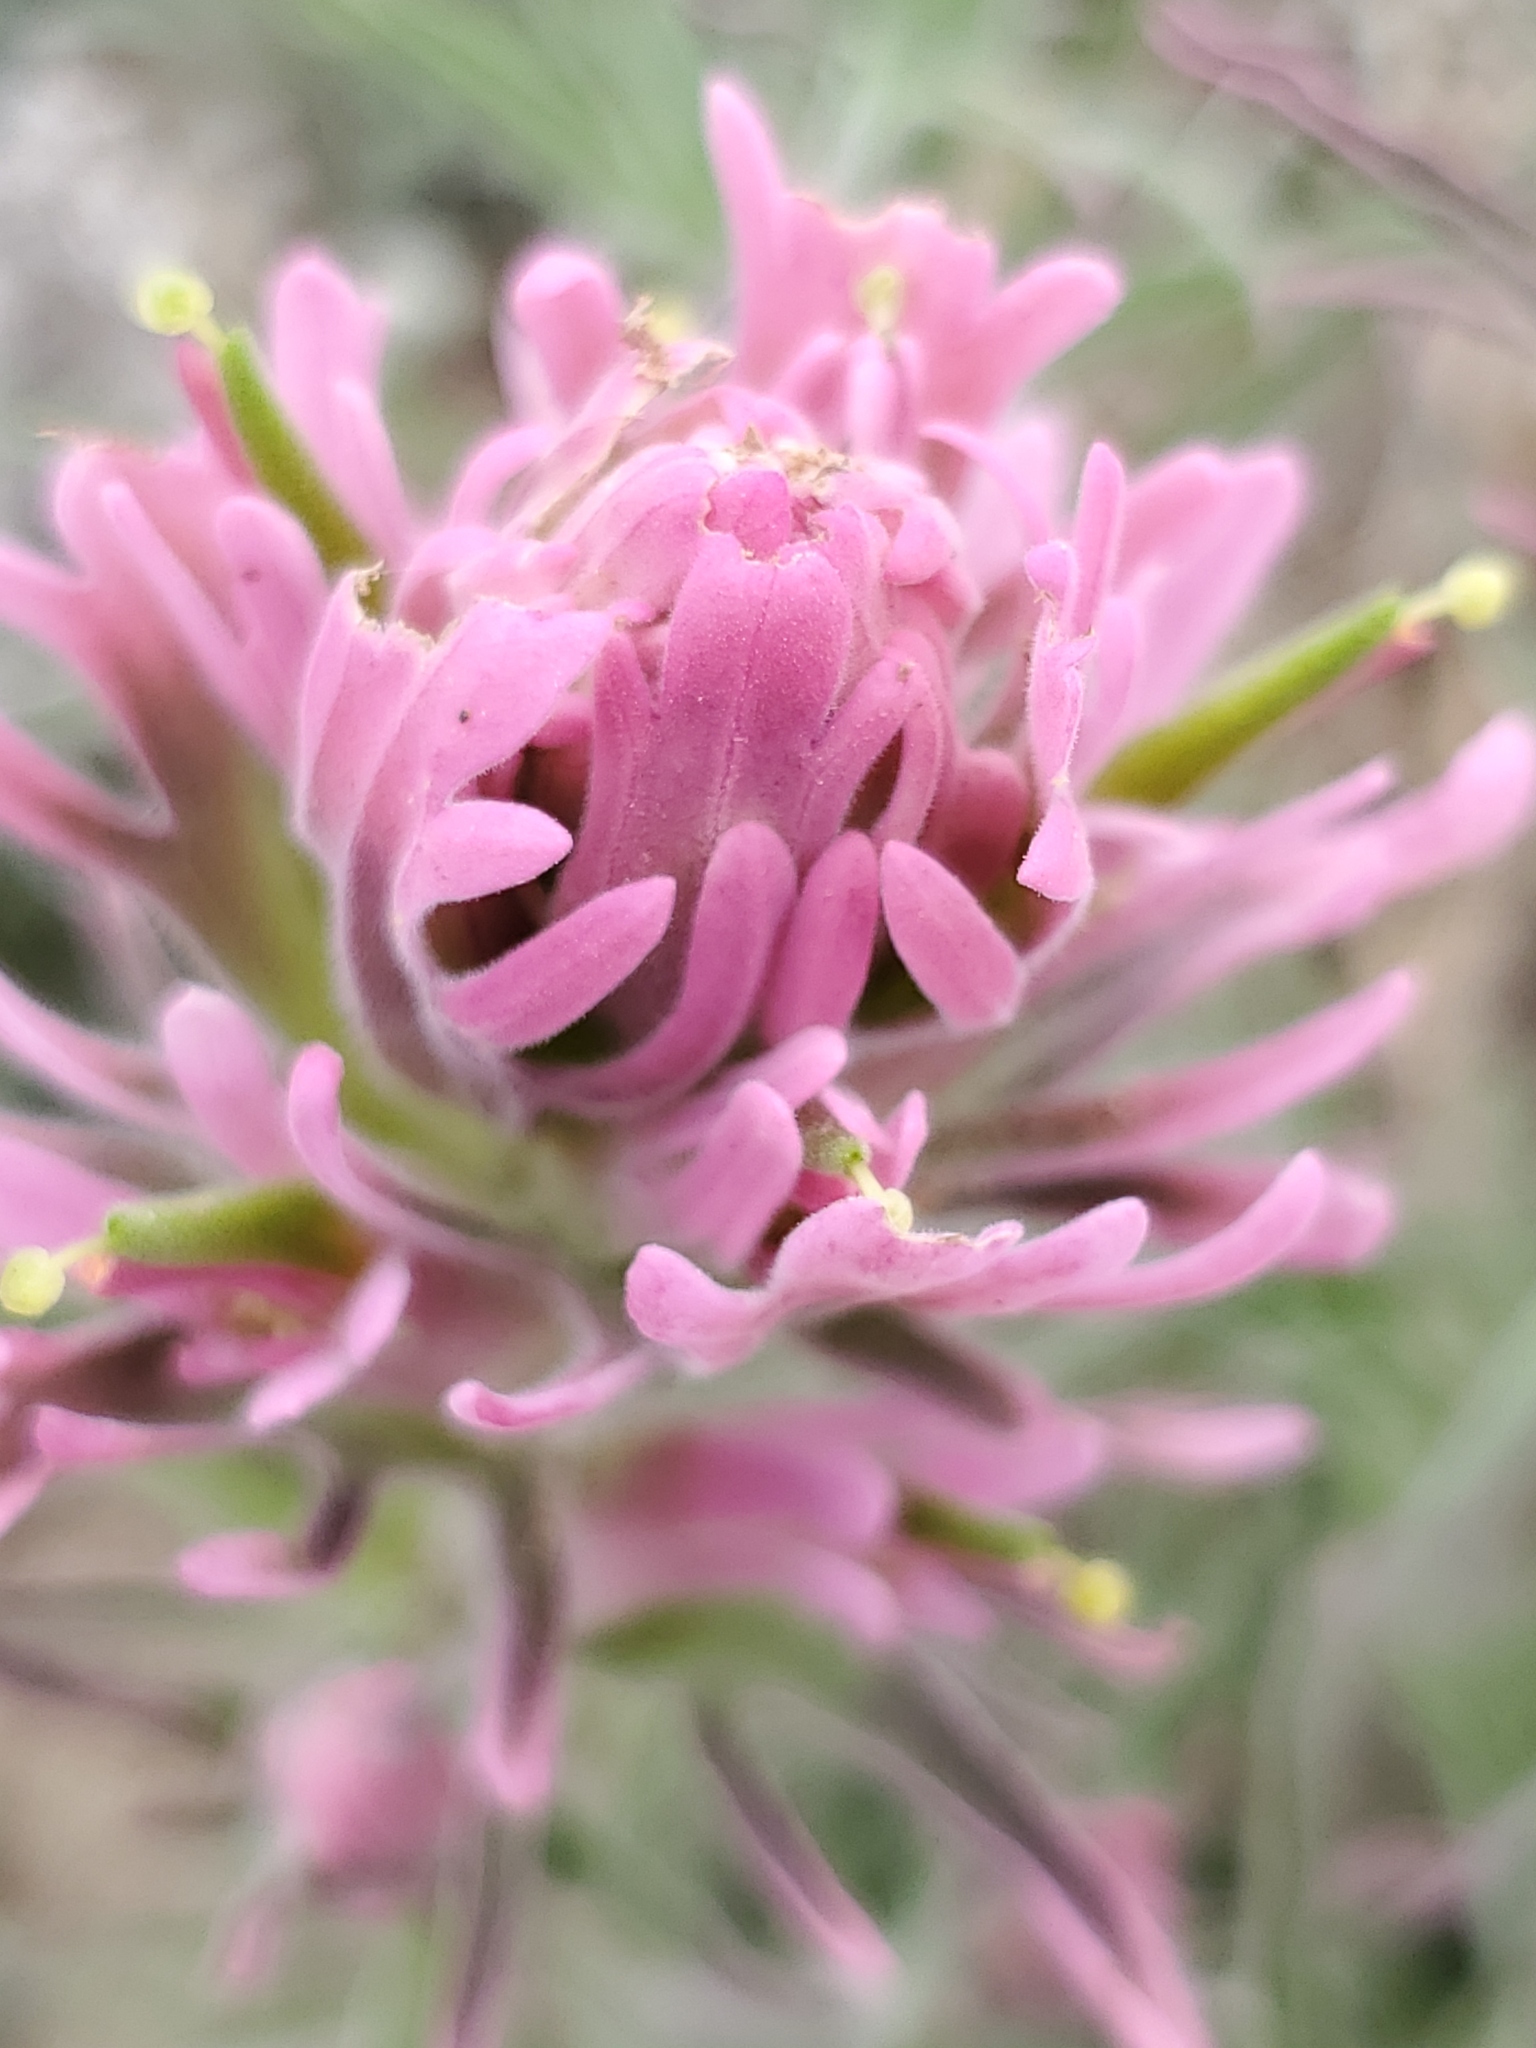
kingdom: Plantae
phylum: Tracheophyta
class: Magnoliopsida
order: Lamiales
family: Orobanchaceae
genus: Castilleja
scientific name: Castilleja purpurea
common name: Plains paintbrush
